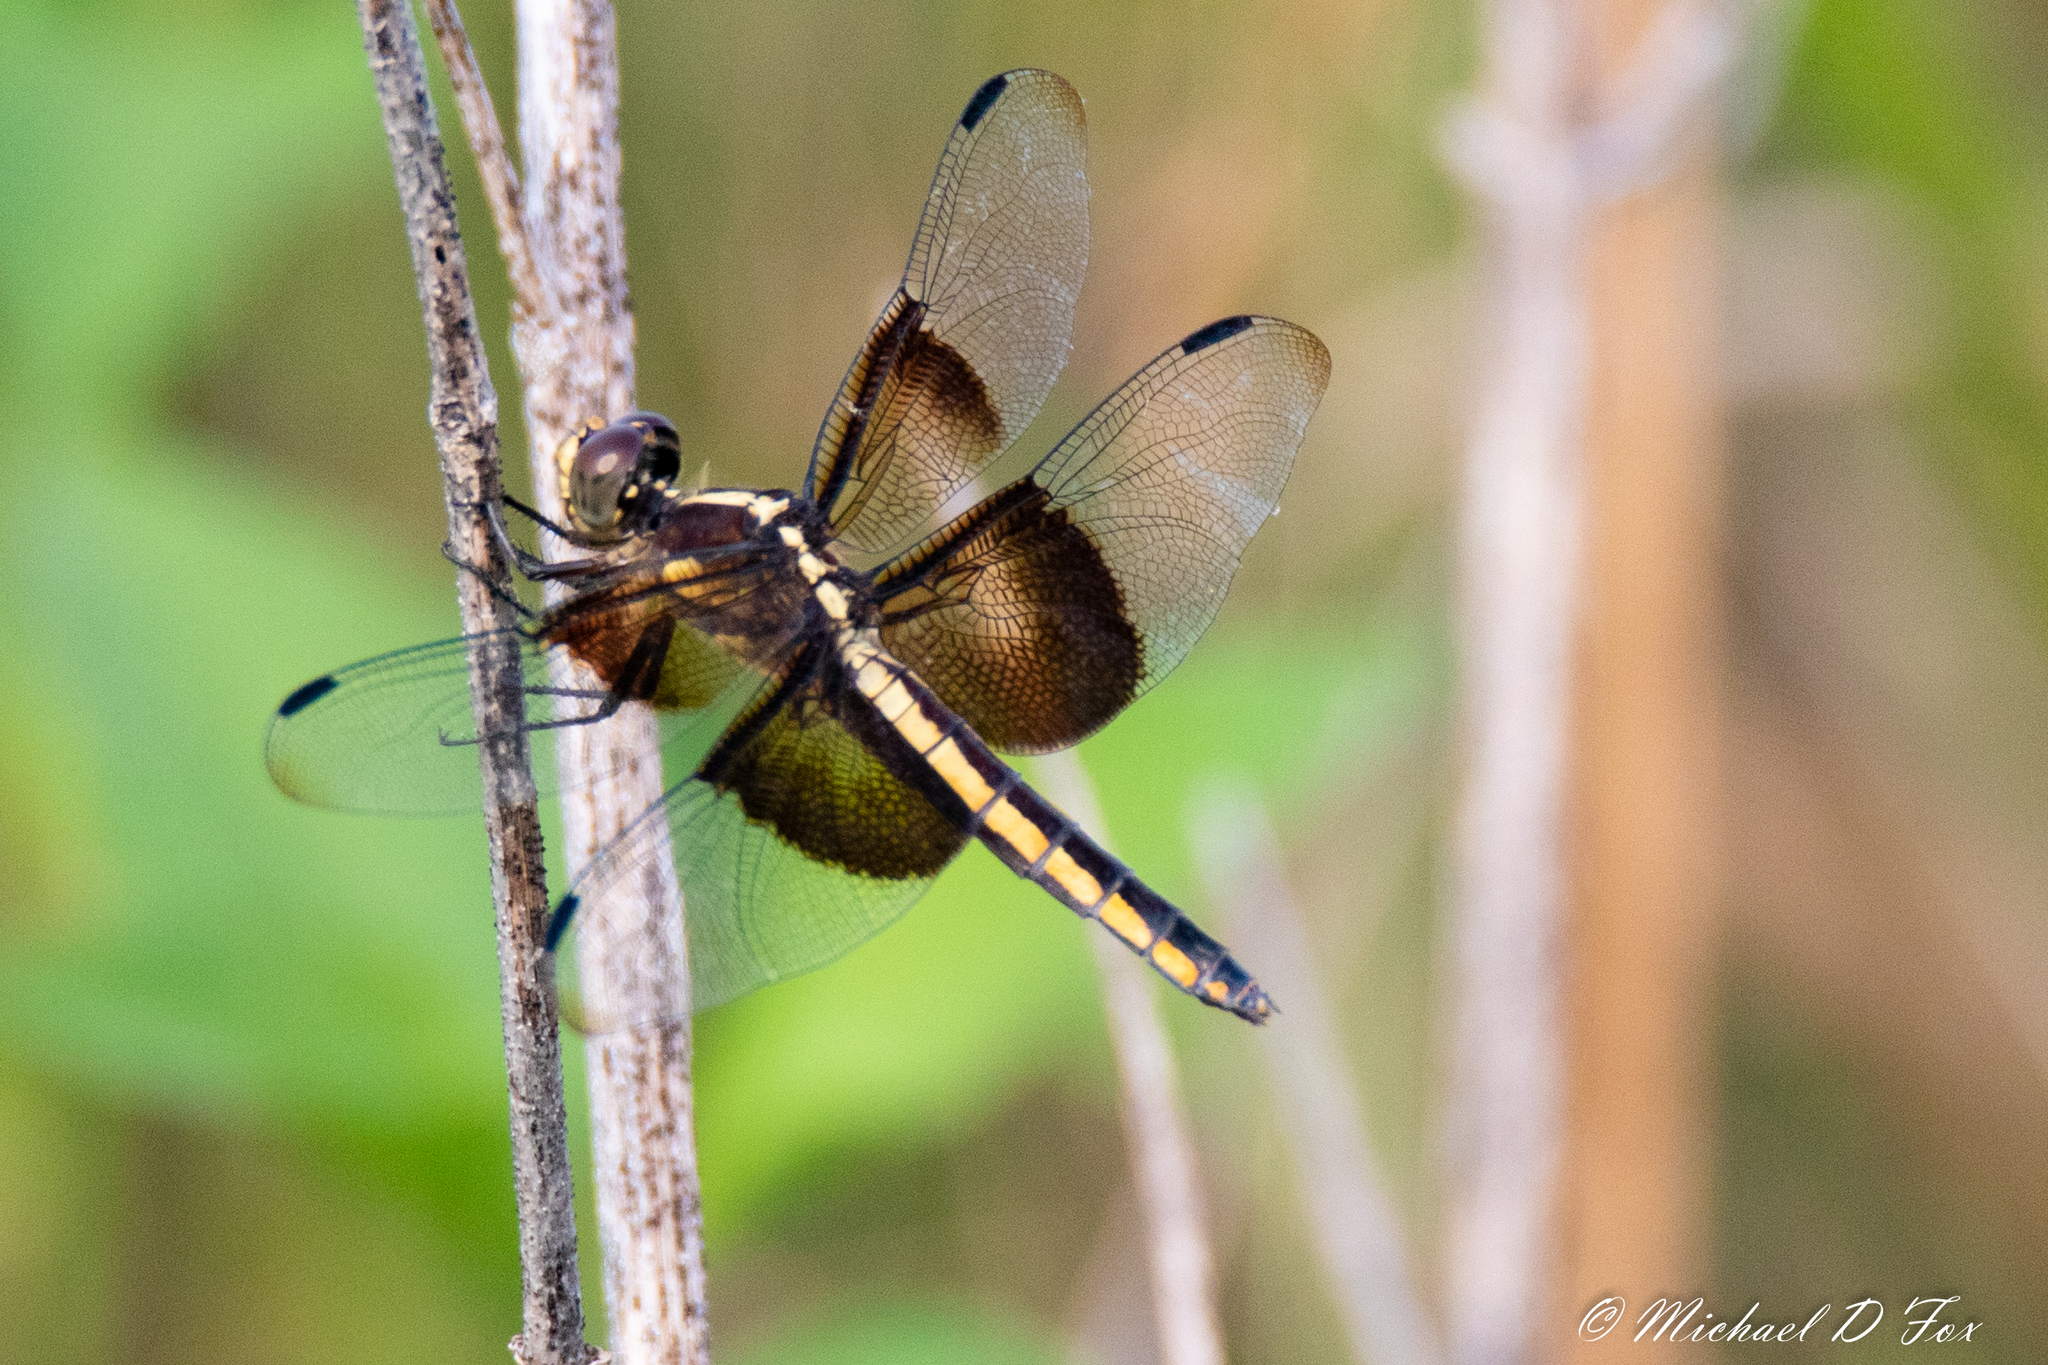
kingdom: Animalia
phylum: Arthropoda
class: Insecta
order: Odonata
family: Libellulidae
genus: Libellula
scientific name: Libellula luctuosa
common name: Widow skimmer
